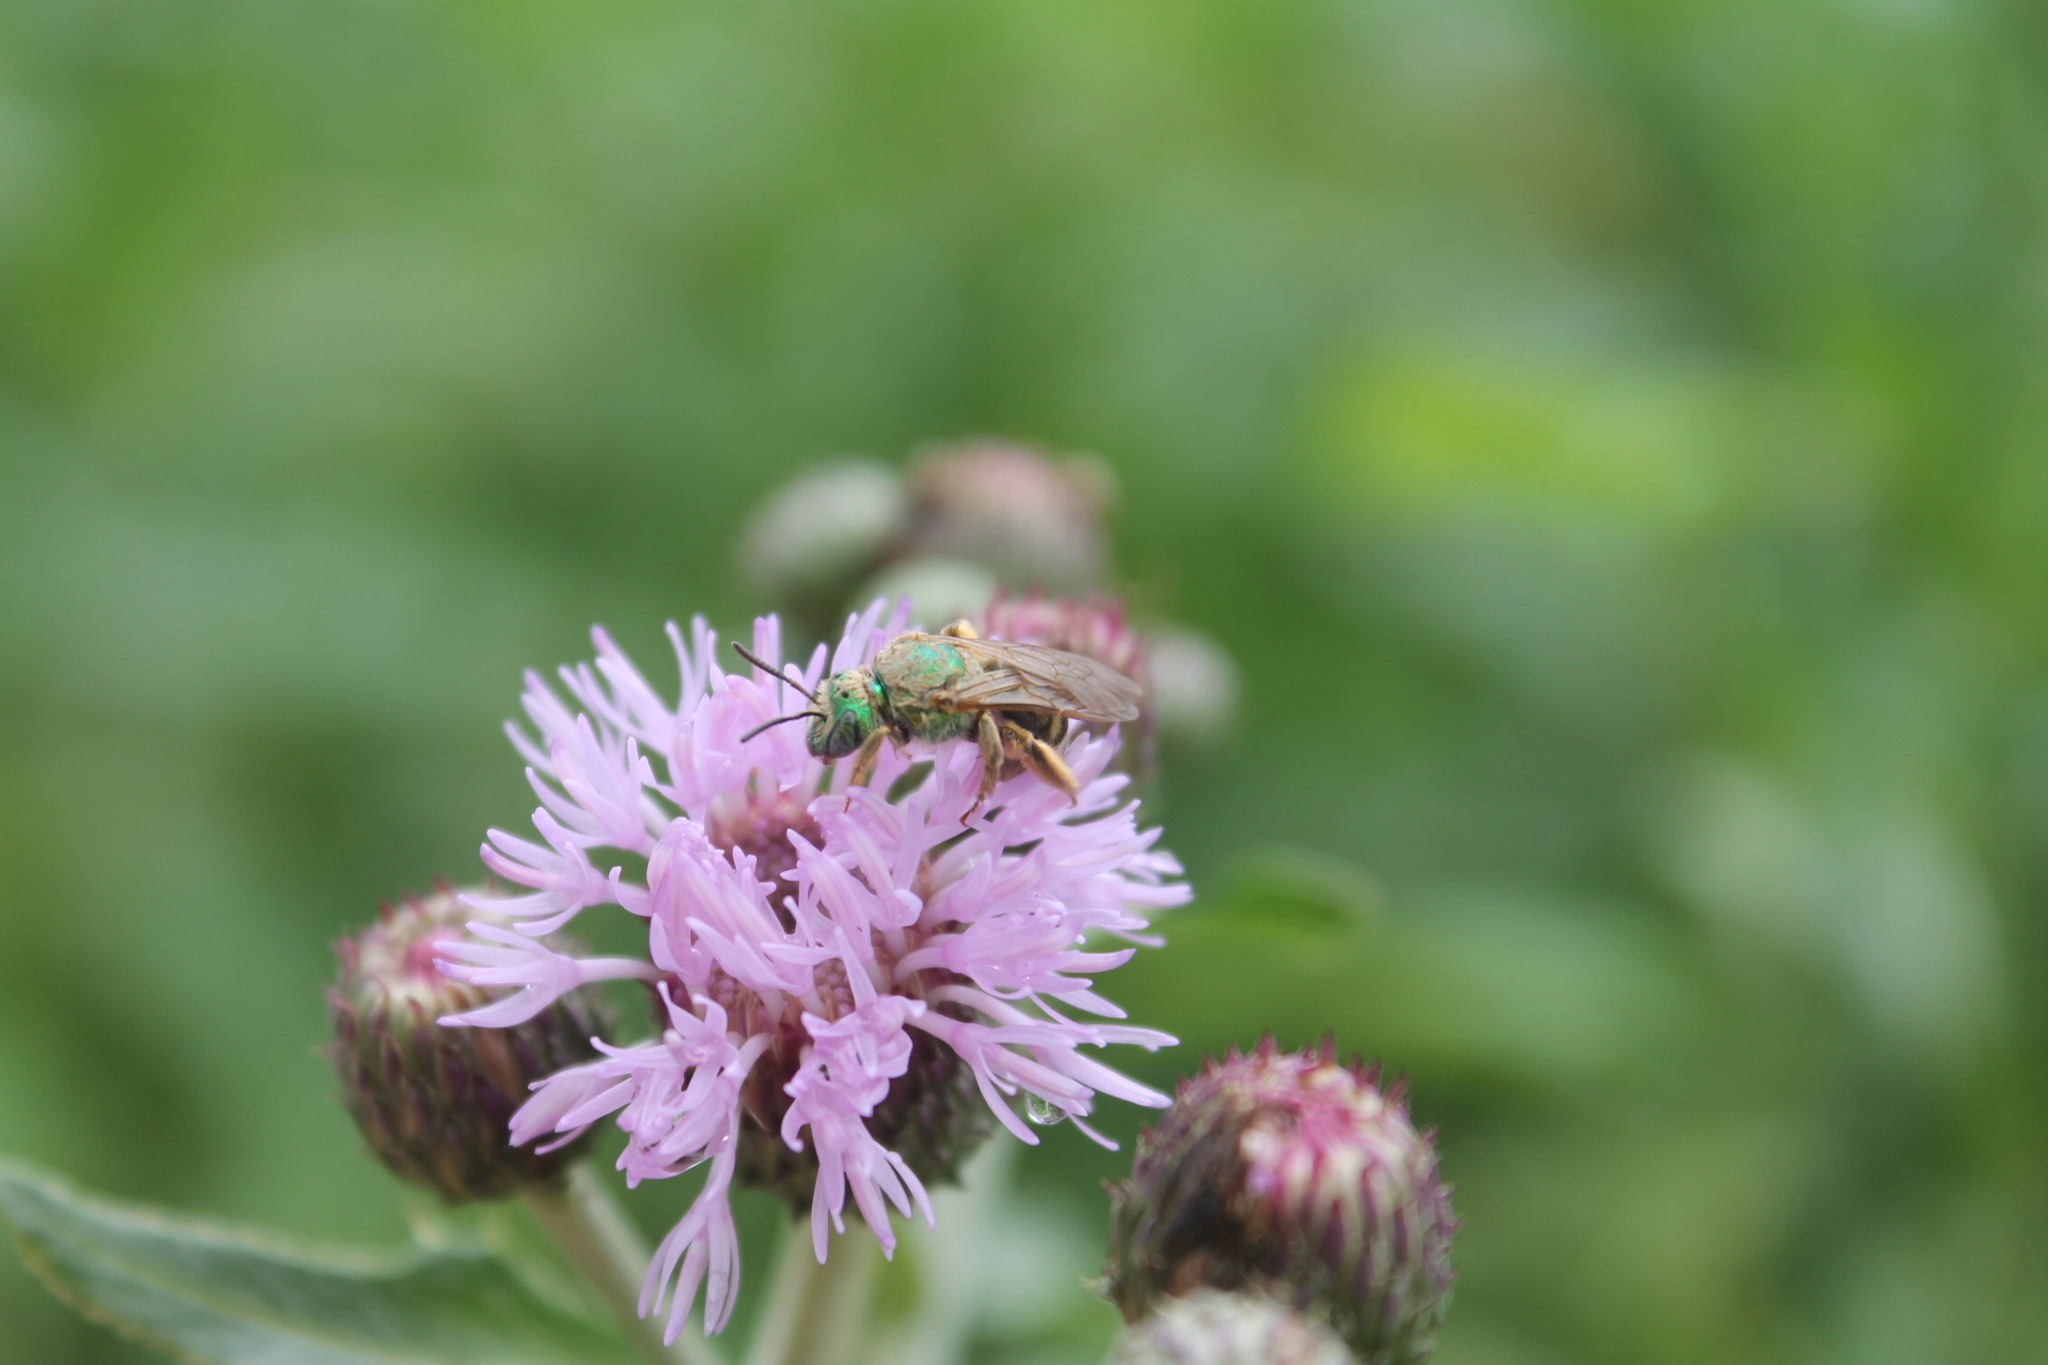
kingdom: Animalia
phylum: Arthropoda
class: Insecta
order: Hymenoptera
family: Halictidae
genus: Agapostemon
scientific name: Agapostemon virescens
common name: Bicolored striped sweat bee
